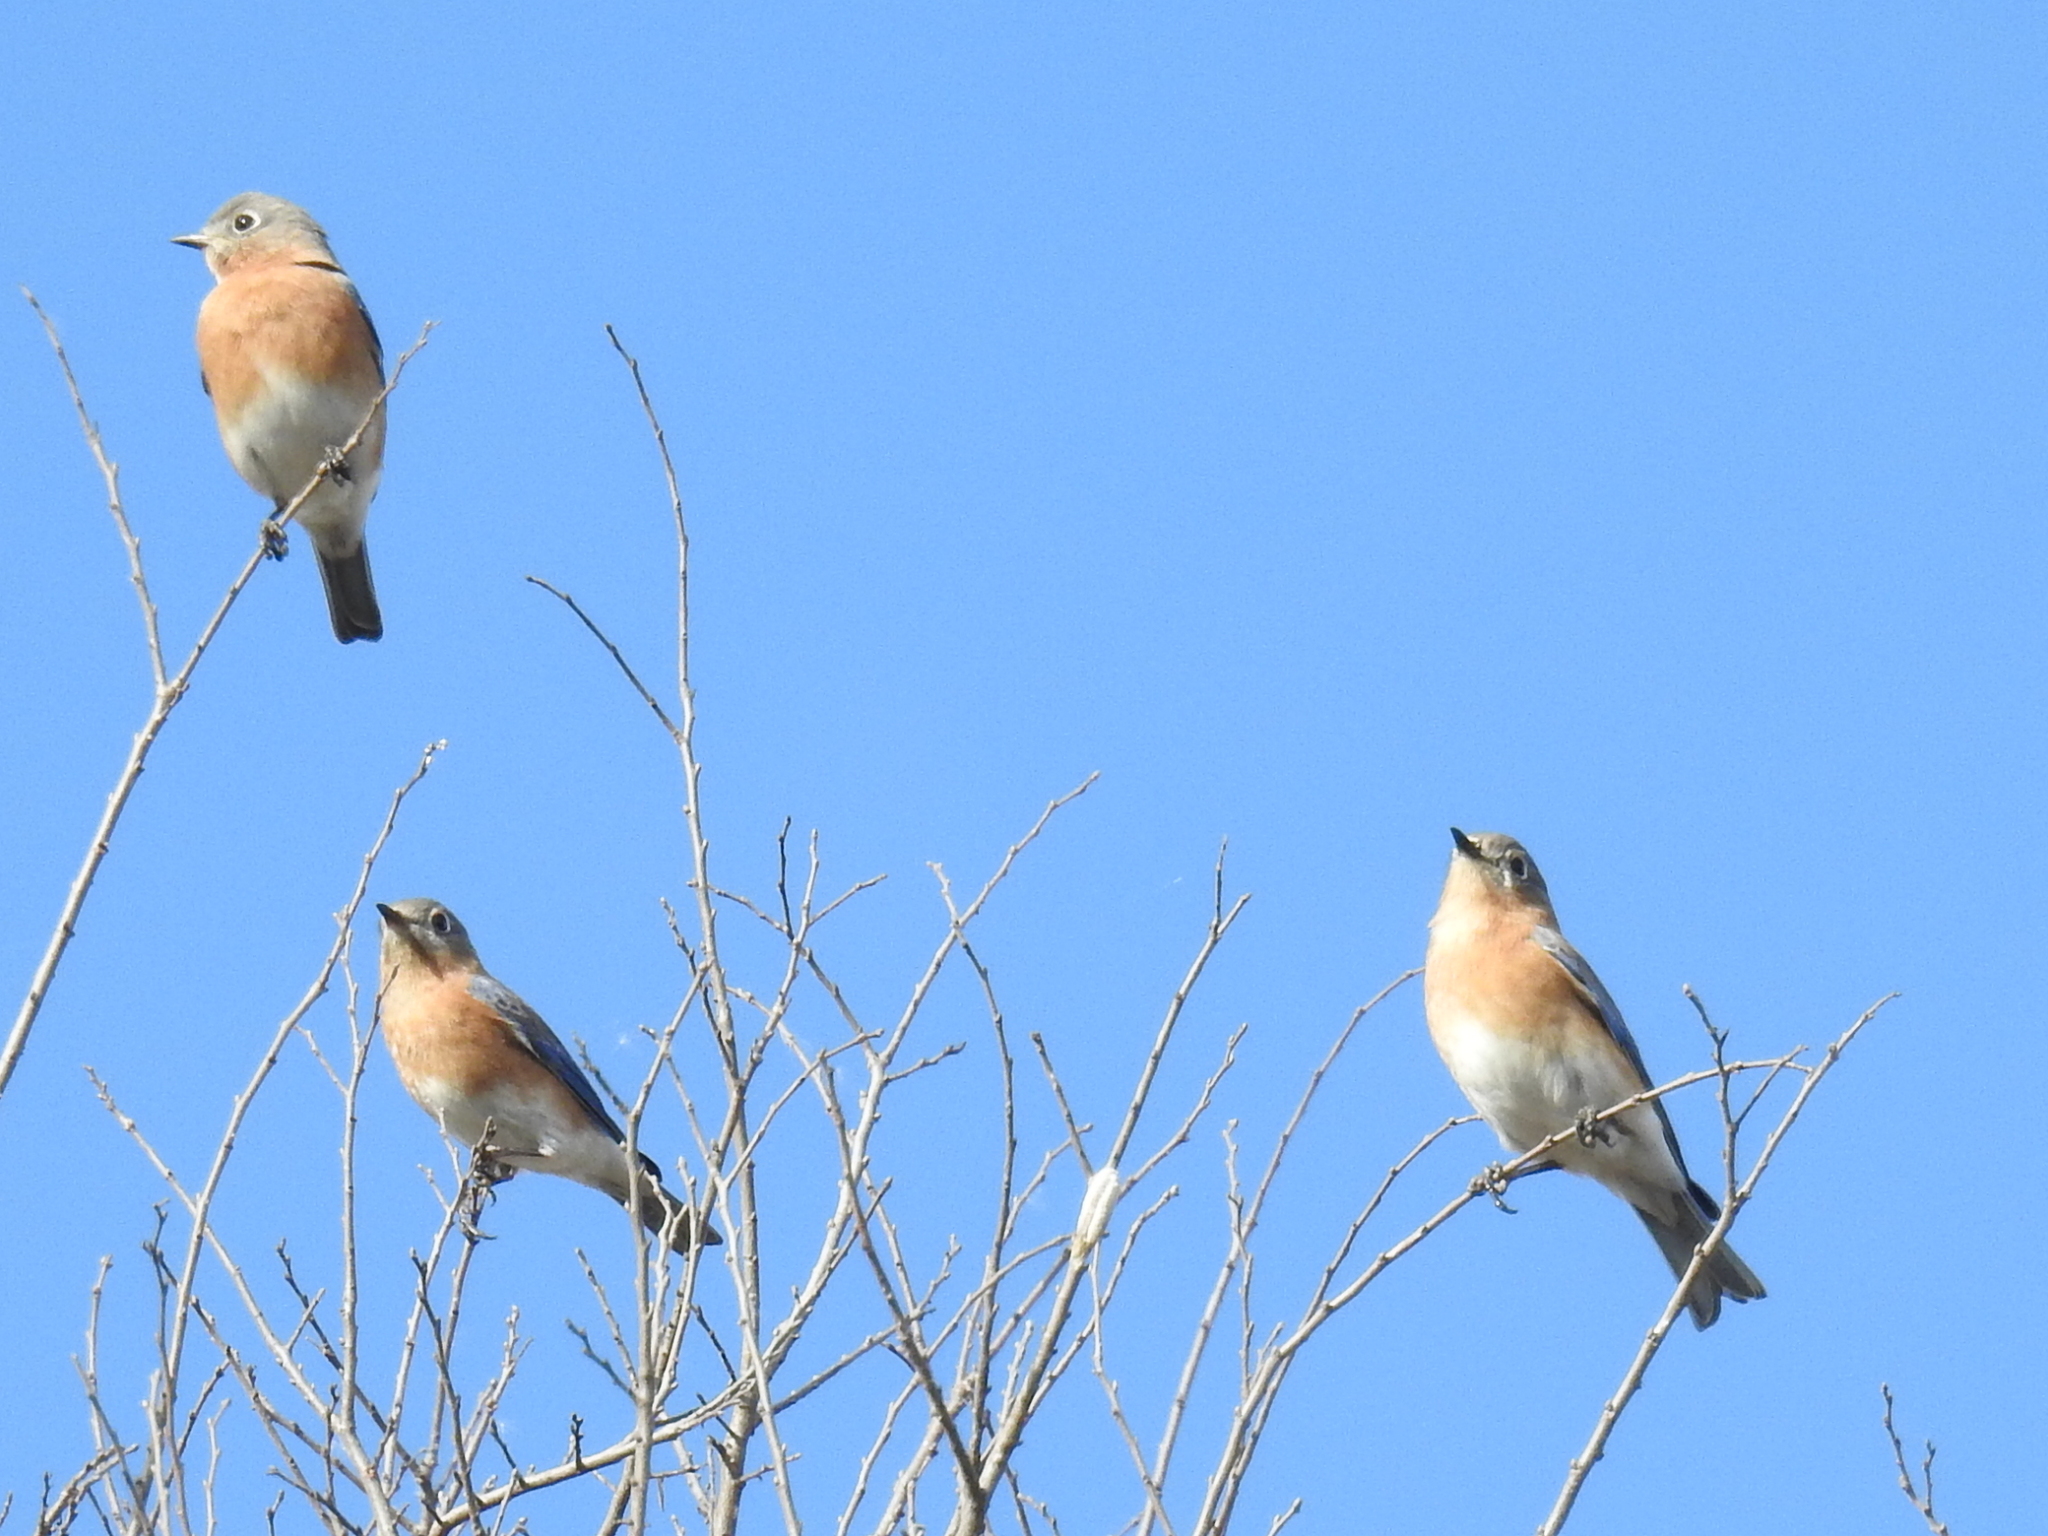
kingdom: Animalia
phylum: Chordata
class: Aves
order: Passeriformes
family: Turdidae
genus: Sialia
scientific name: Sialia sialis
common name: Eastern bluebird
